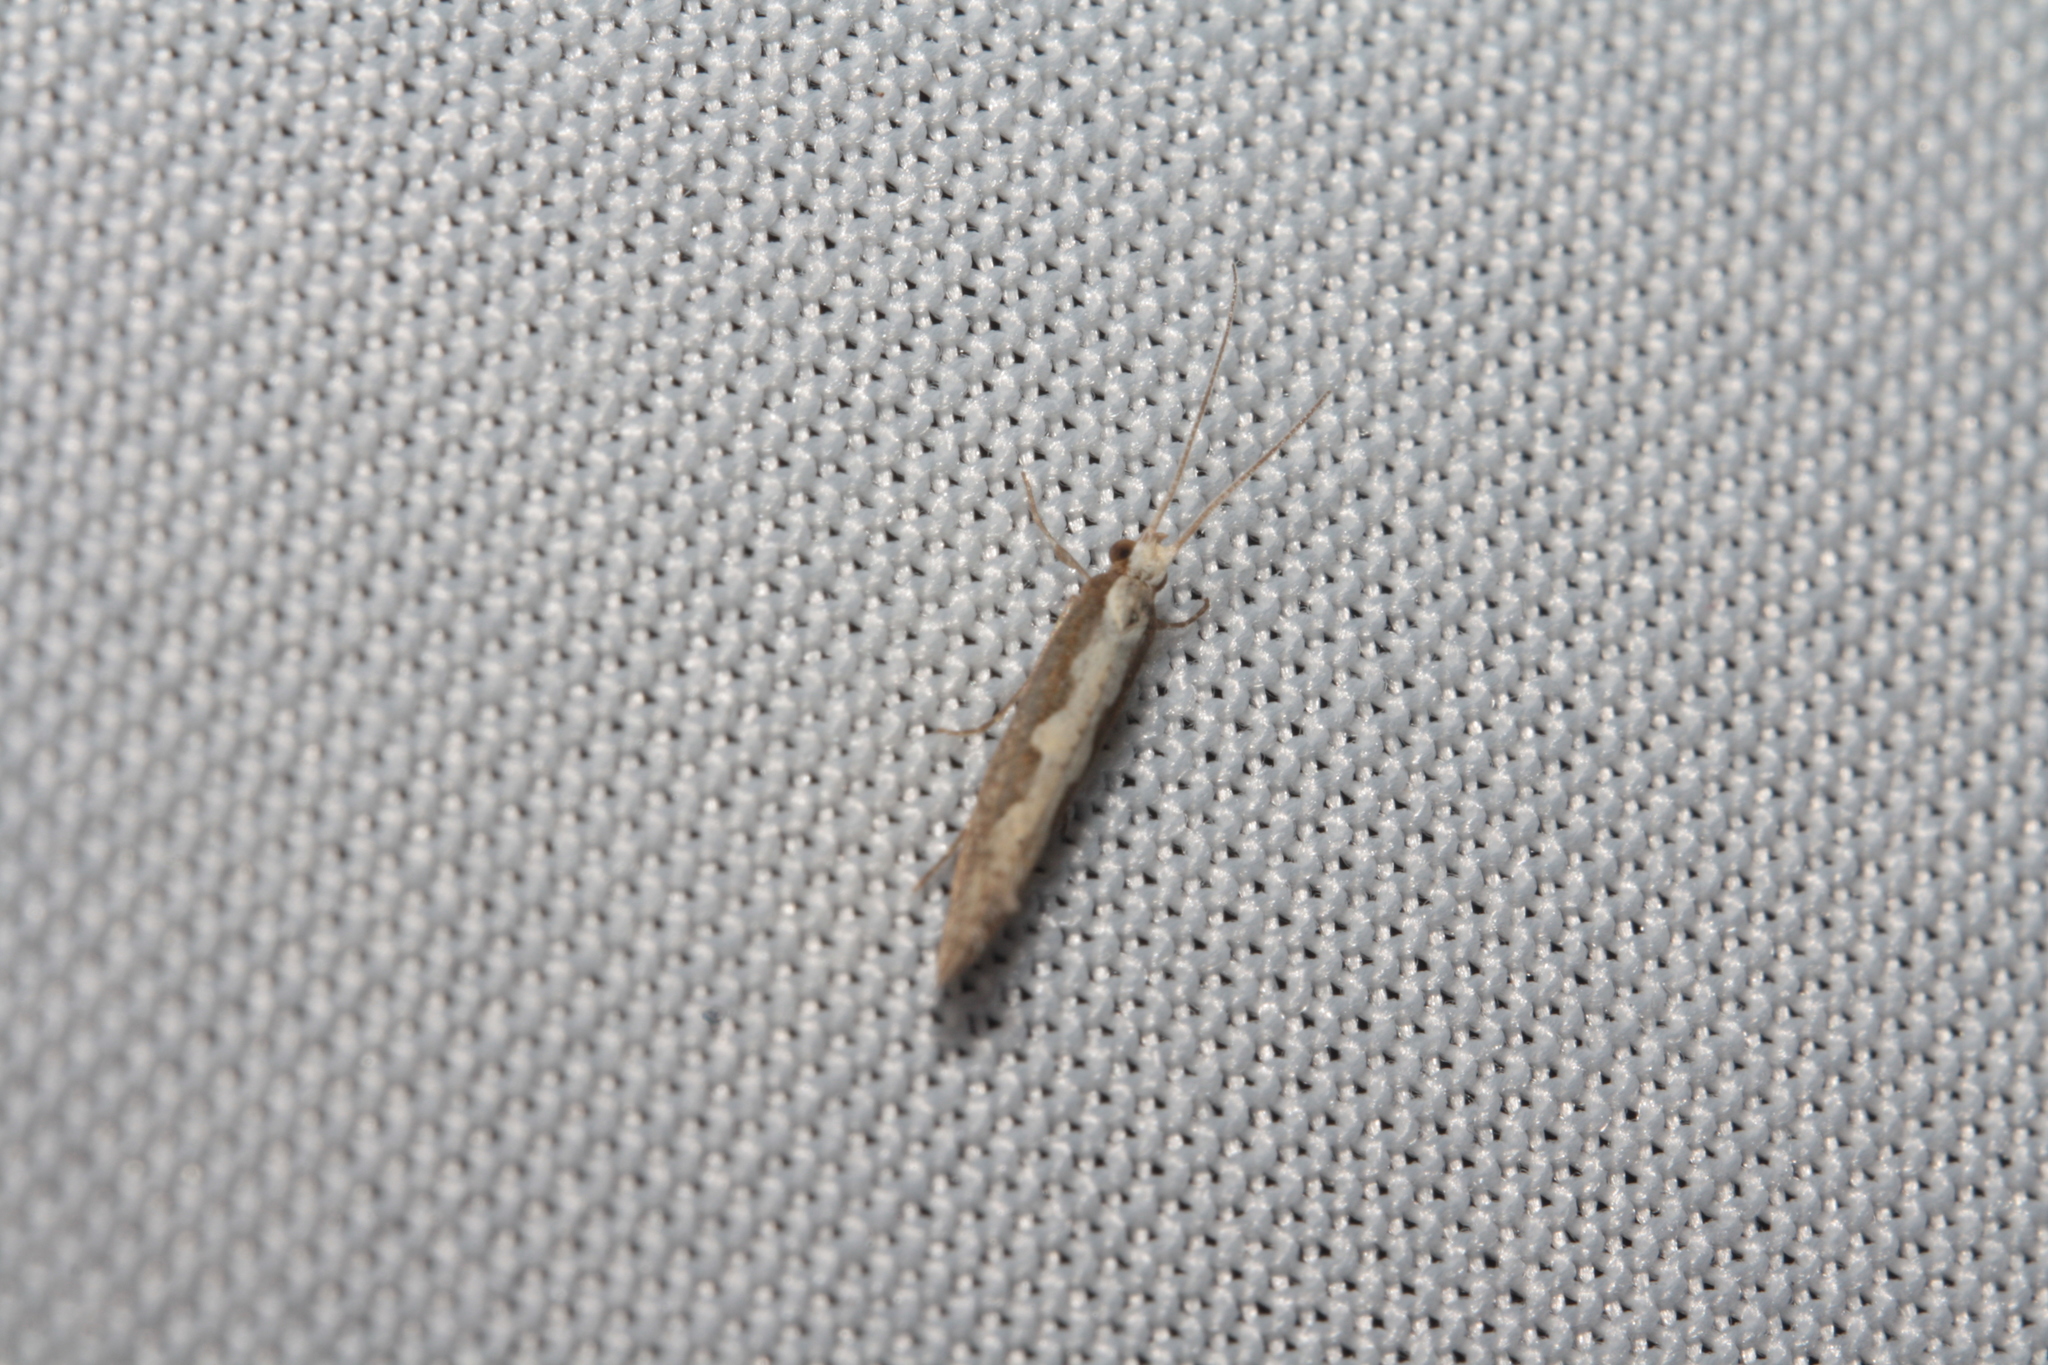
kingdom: Animalia
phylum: Arthropoda
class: Insecta
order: Lepidoptera
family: Plutellidae
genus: Plutella
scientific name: Plutella xylostella
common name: Diamond-back moth
